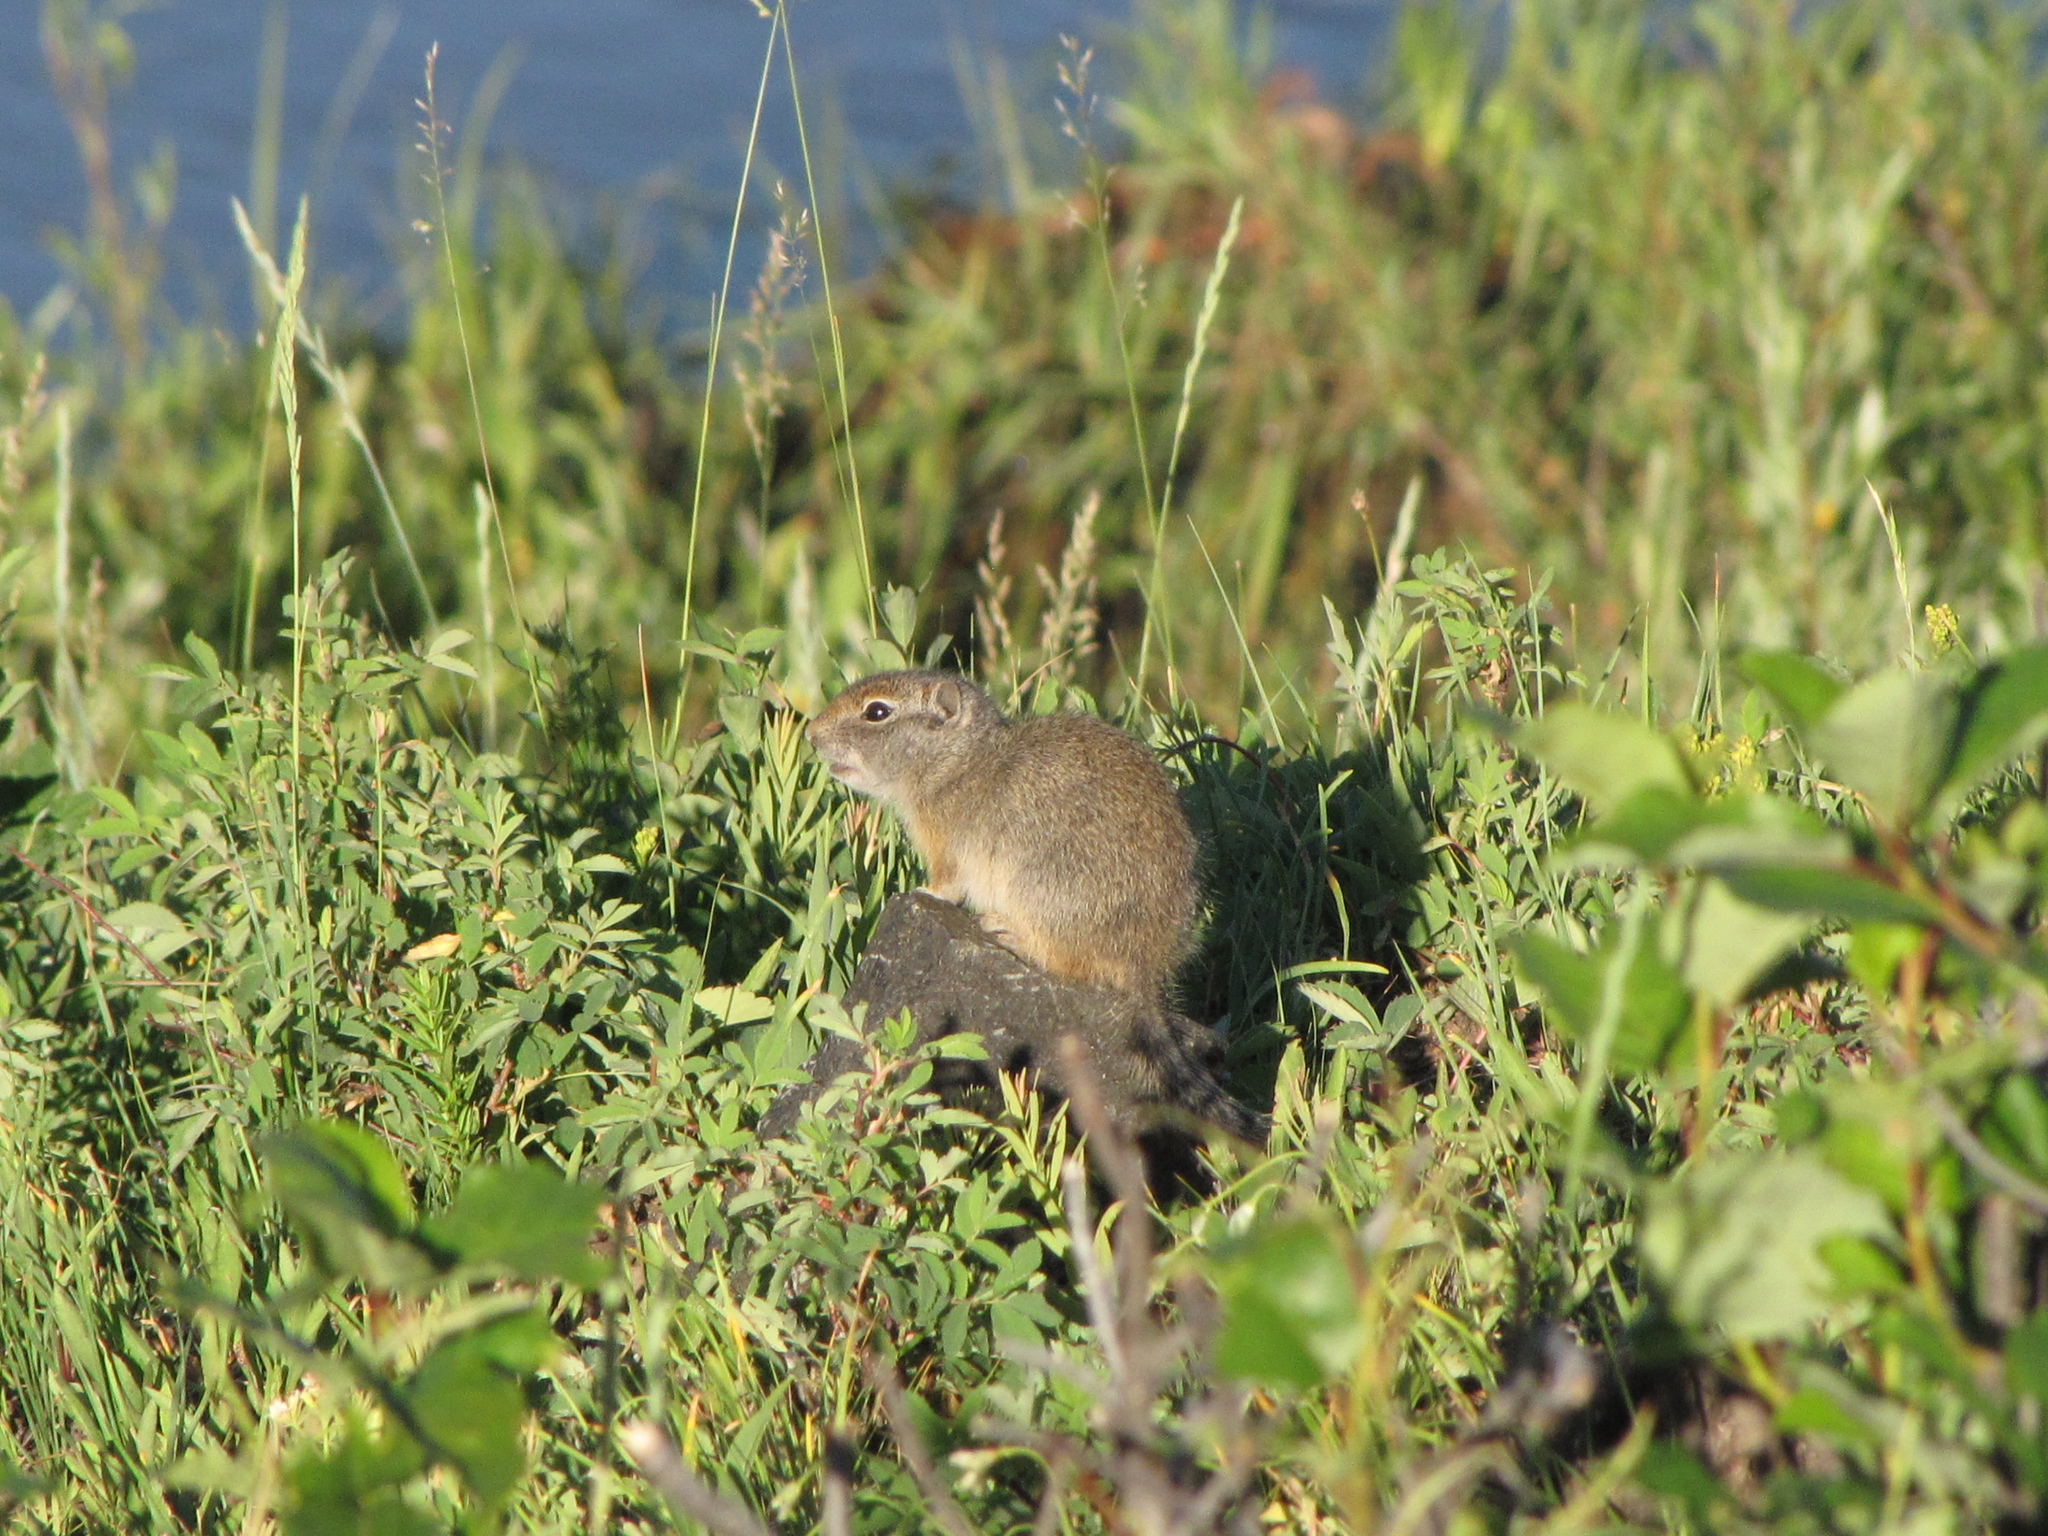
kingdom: Animalia
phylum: Chordata
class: Mammalia
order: Rodentia
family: Sciuridae
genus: Urocitellus
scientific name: Urocitellus armatus
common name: Uinta ground squirrel
